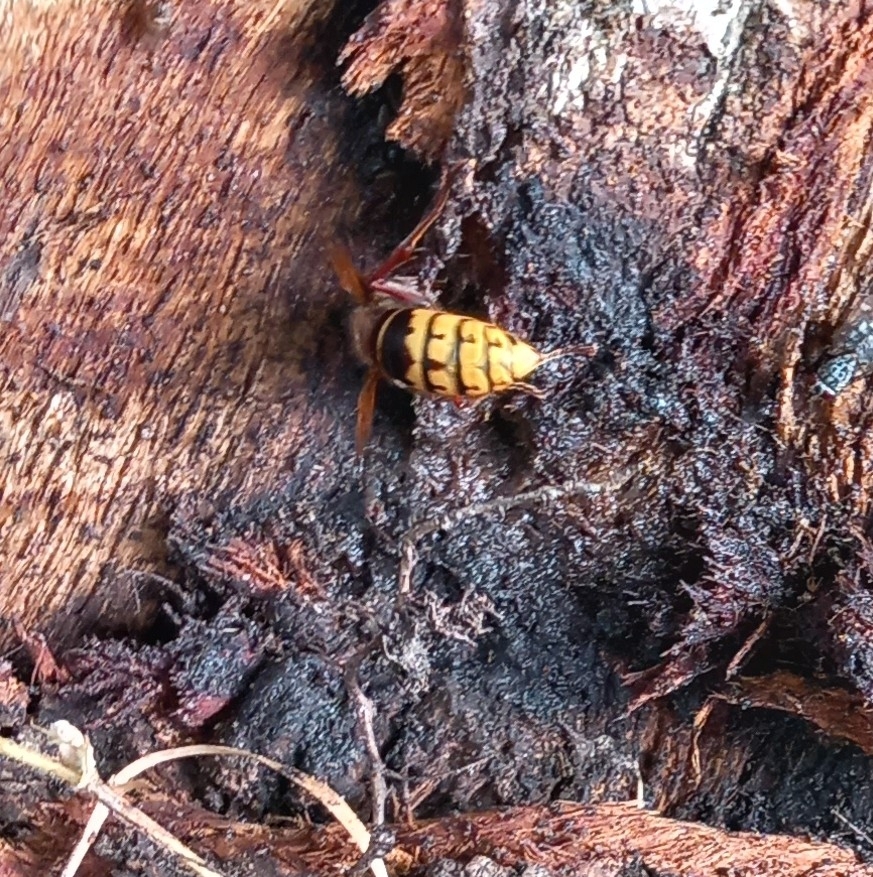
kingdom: Animalia
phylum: Arthropoda
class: Insecta
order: Hymenoptera
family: Vespidae
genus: Vespa
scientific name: Vespa crabro
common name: Hornet
